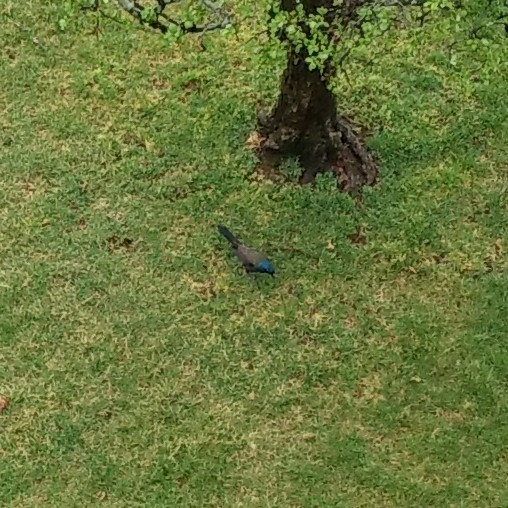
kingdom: Animalia
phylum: Chordata
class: Aves
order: Passeriformes
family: Icteridae
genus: Quiscalus
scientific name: Quiscalus quiscula
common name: Common grackle
